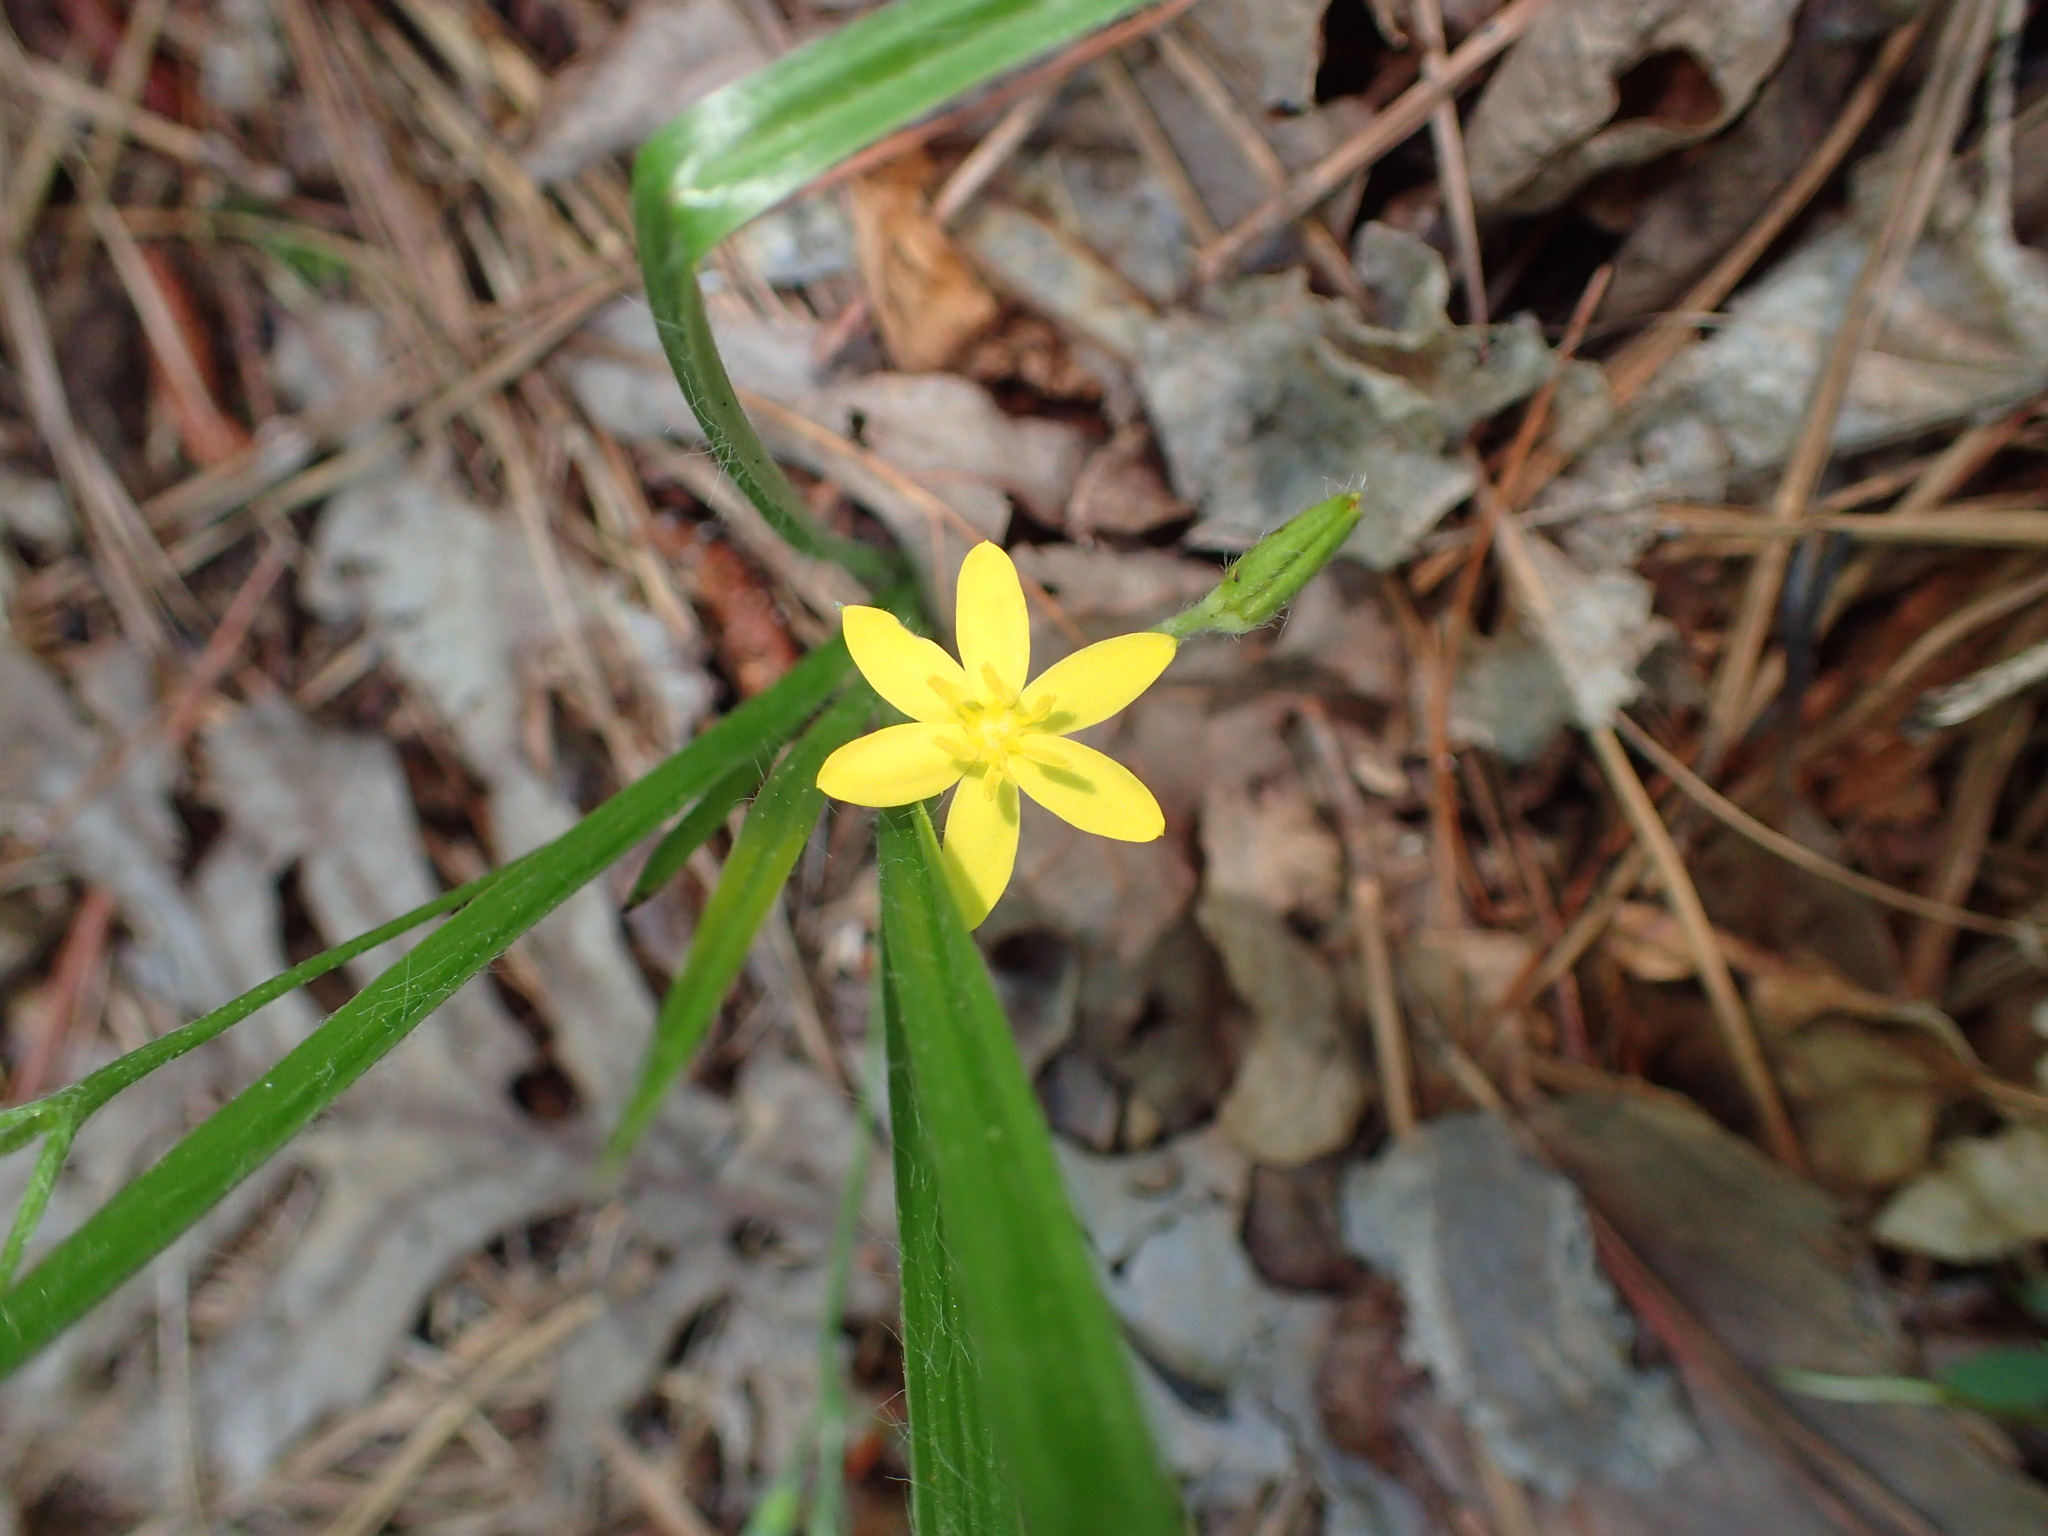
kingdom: Plantae
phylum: Tracheophyta
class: Liliopsida
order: Asparagales
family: Hypoxidaceae
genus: Hypoxis
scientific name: Hypoxis hirsuta
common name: Common goldstar
